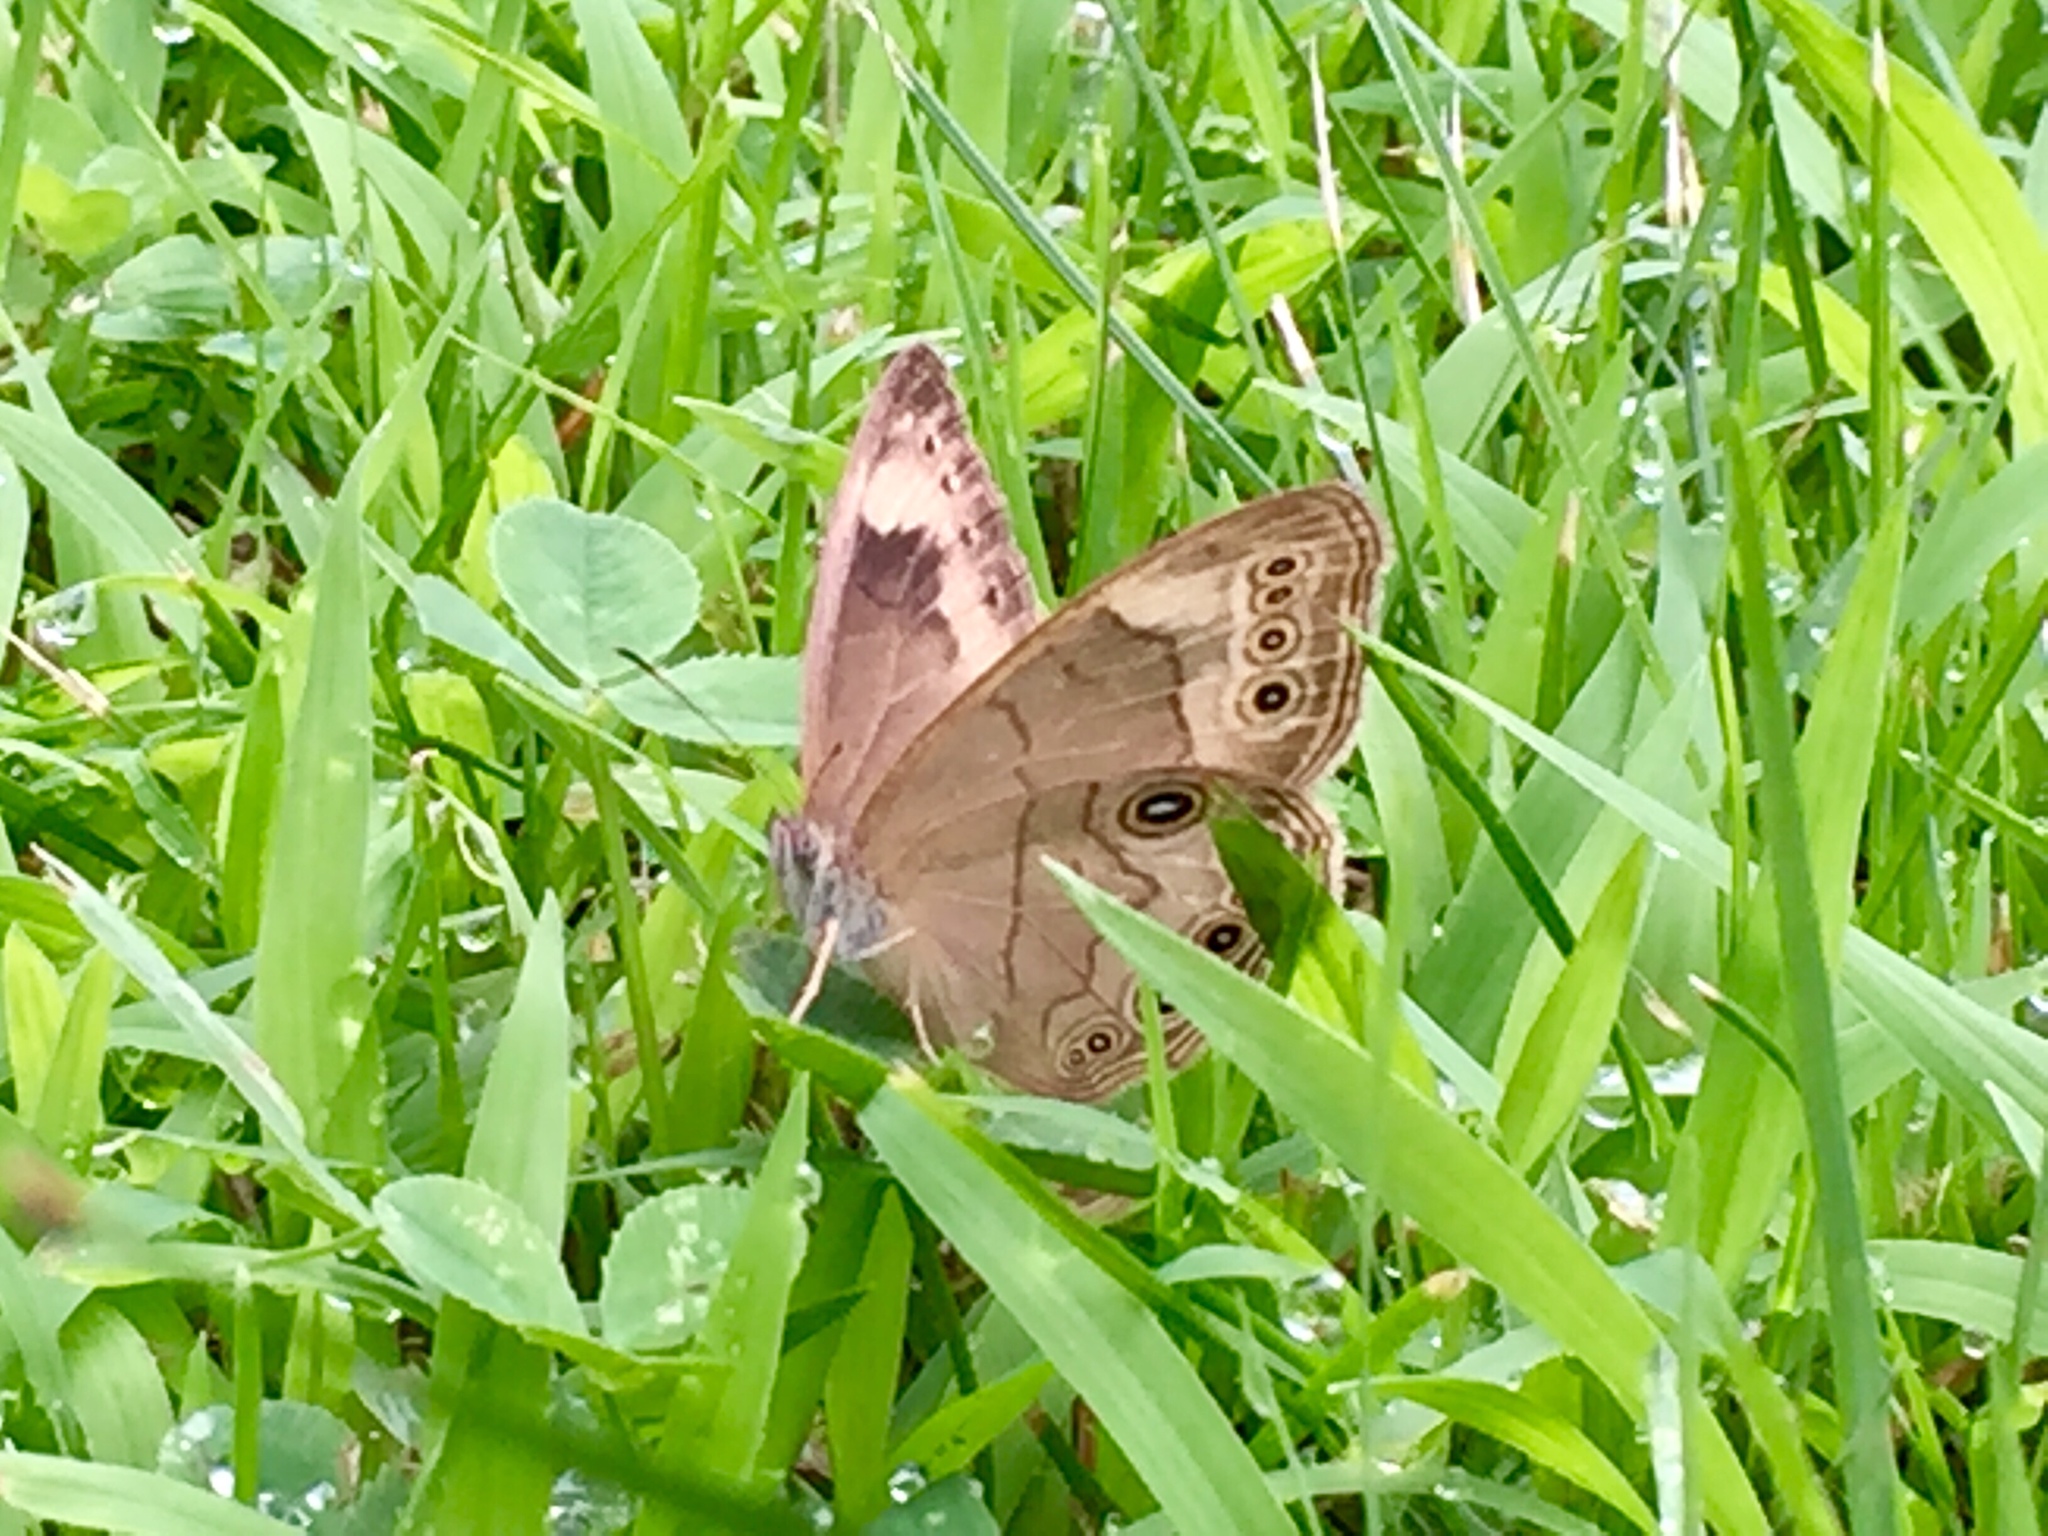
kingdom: Animalia
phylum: Arthropoda
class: Insecta
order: Lepidoptera
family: Nymphalidae
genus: Lethe
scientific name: Lethe anthedon
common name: Northern pearly-eye
